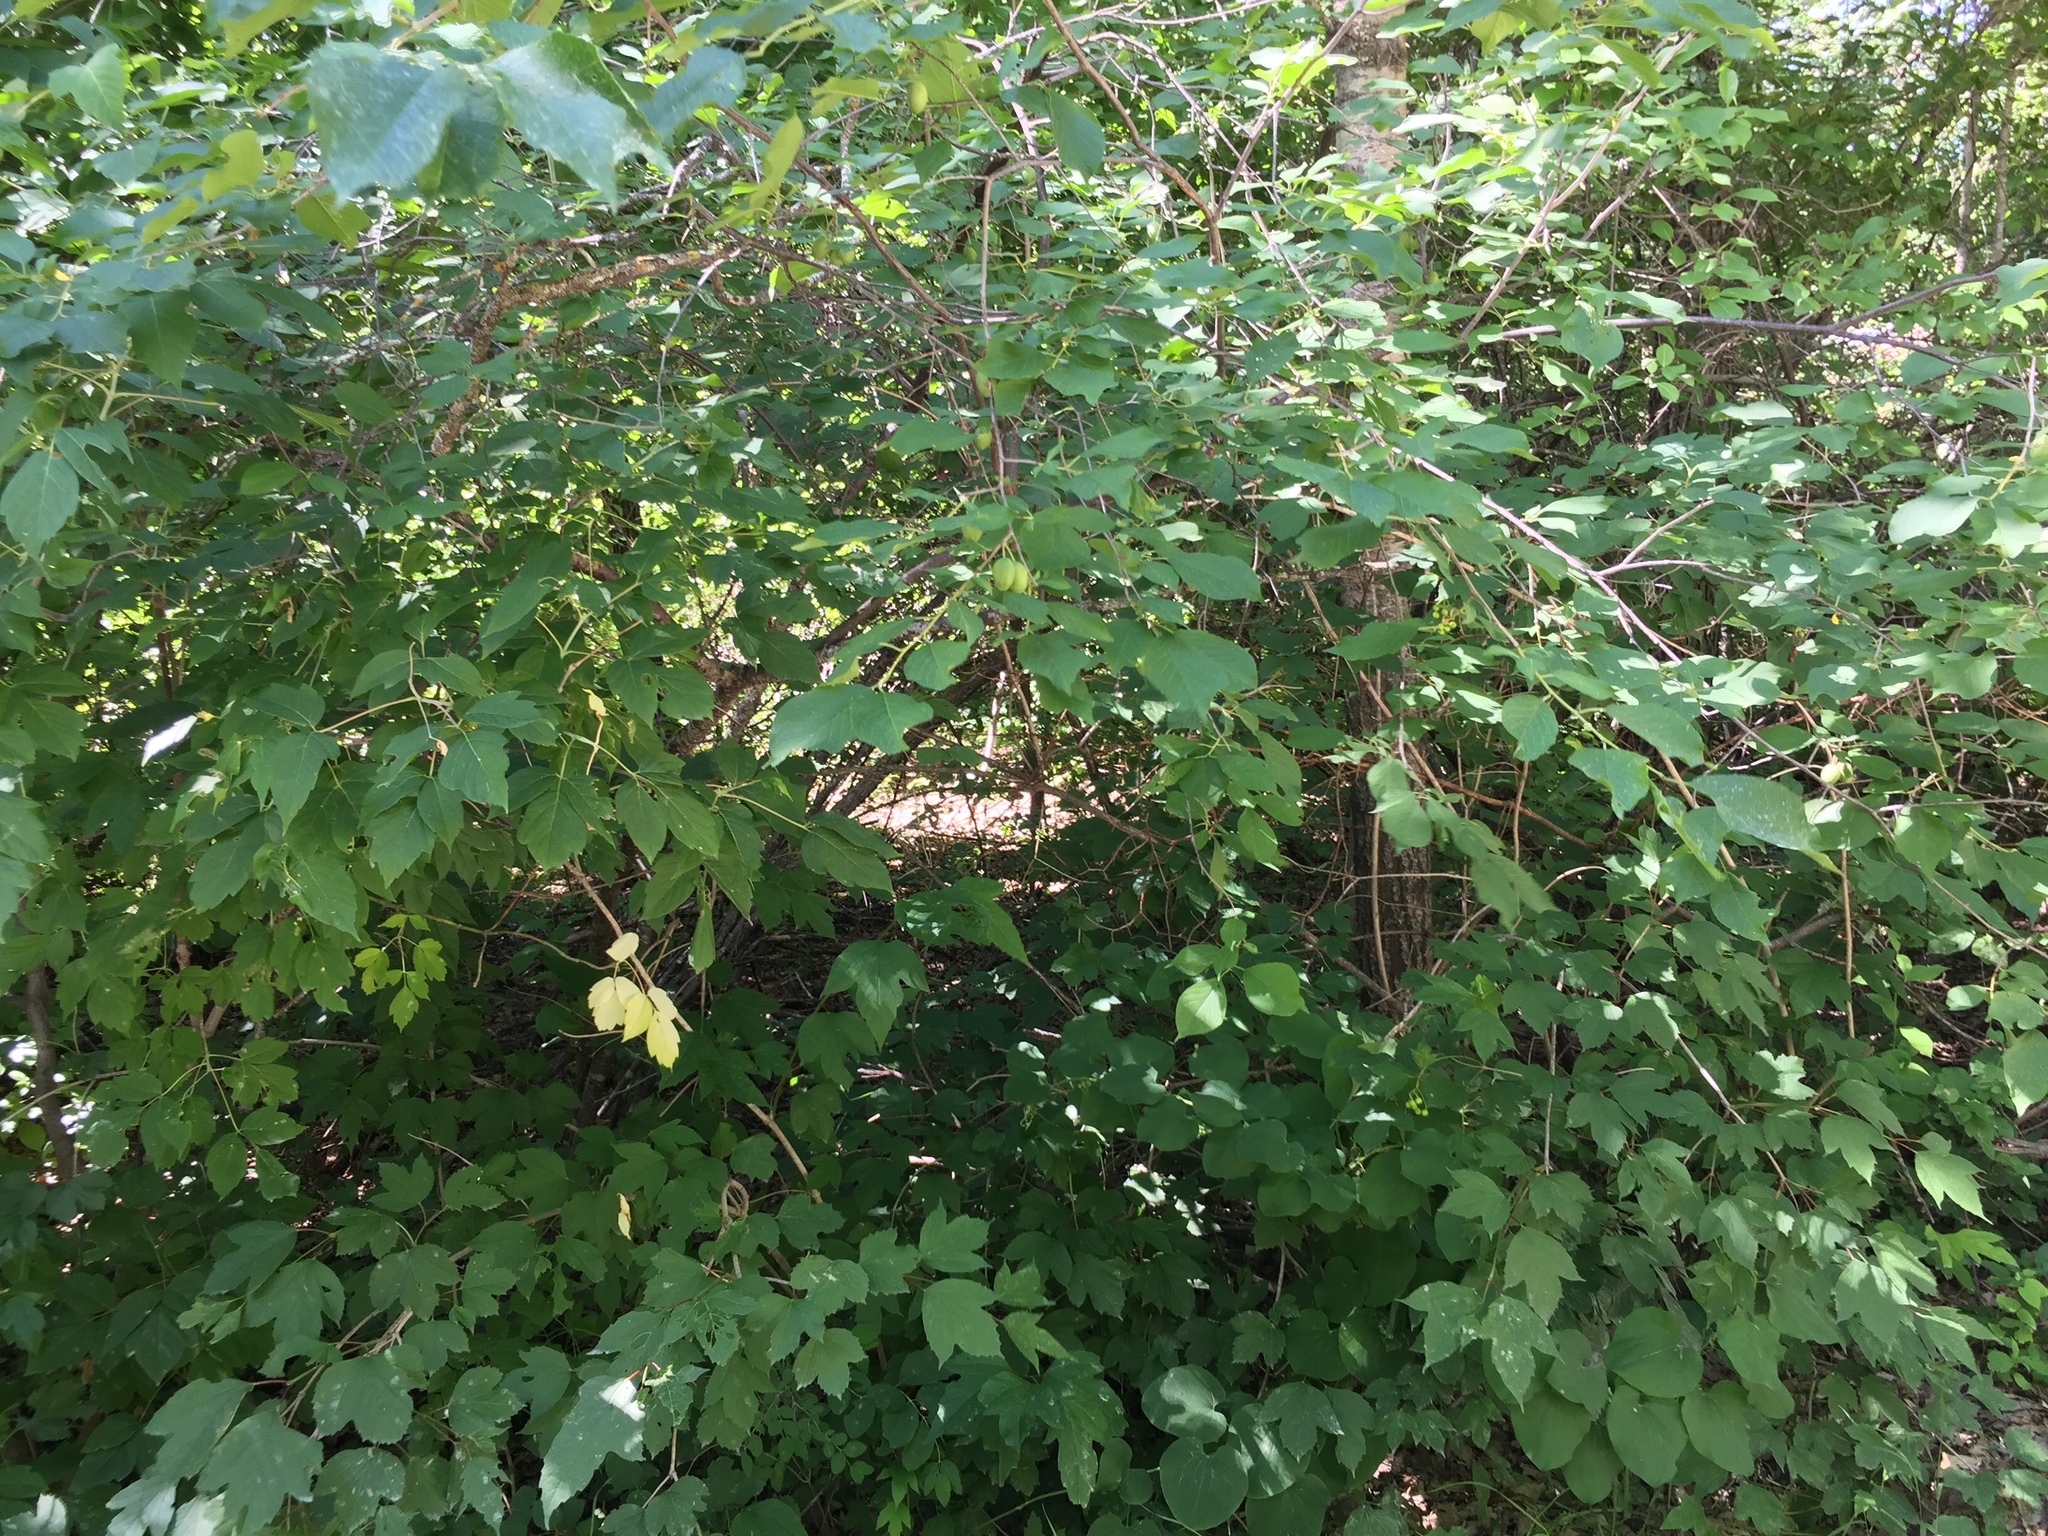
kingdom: Plantae
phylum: Tracheophyta
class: Magnoliopsida
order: Rosales
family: Rosaceae
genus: Prunus
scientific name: Prunus nigra
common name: Black plum
